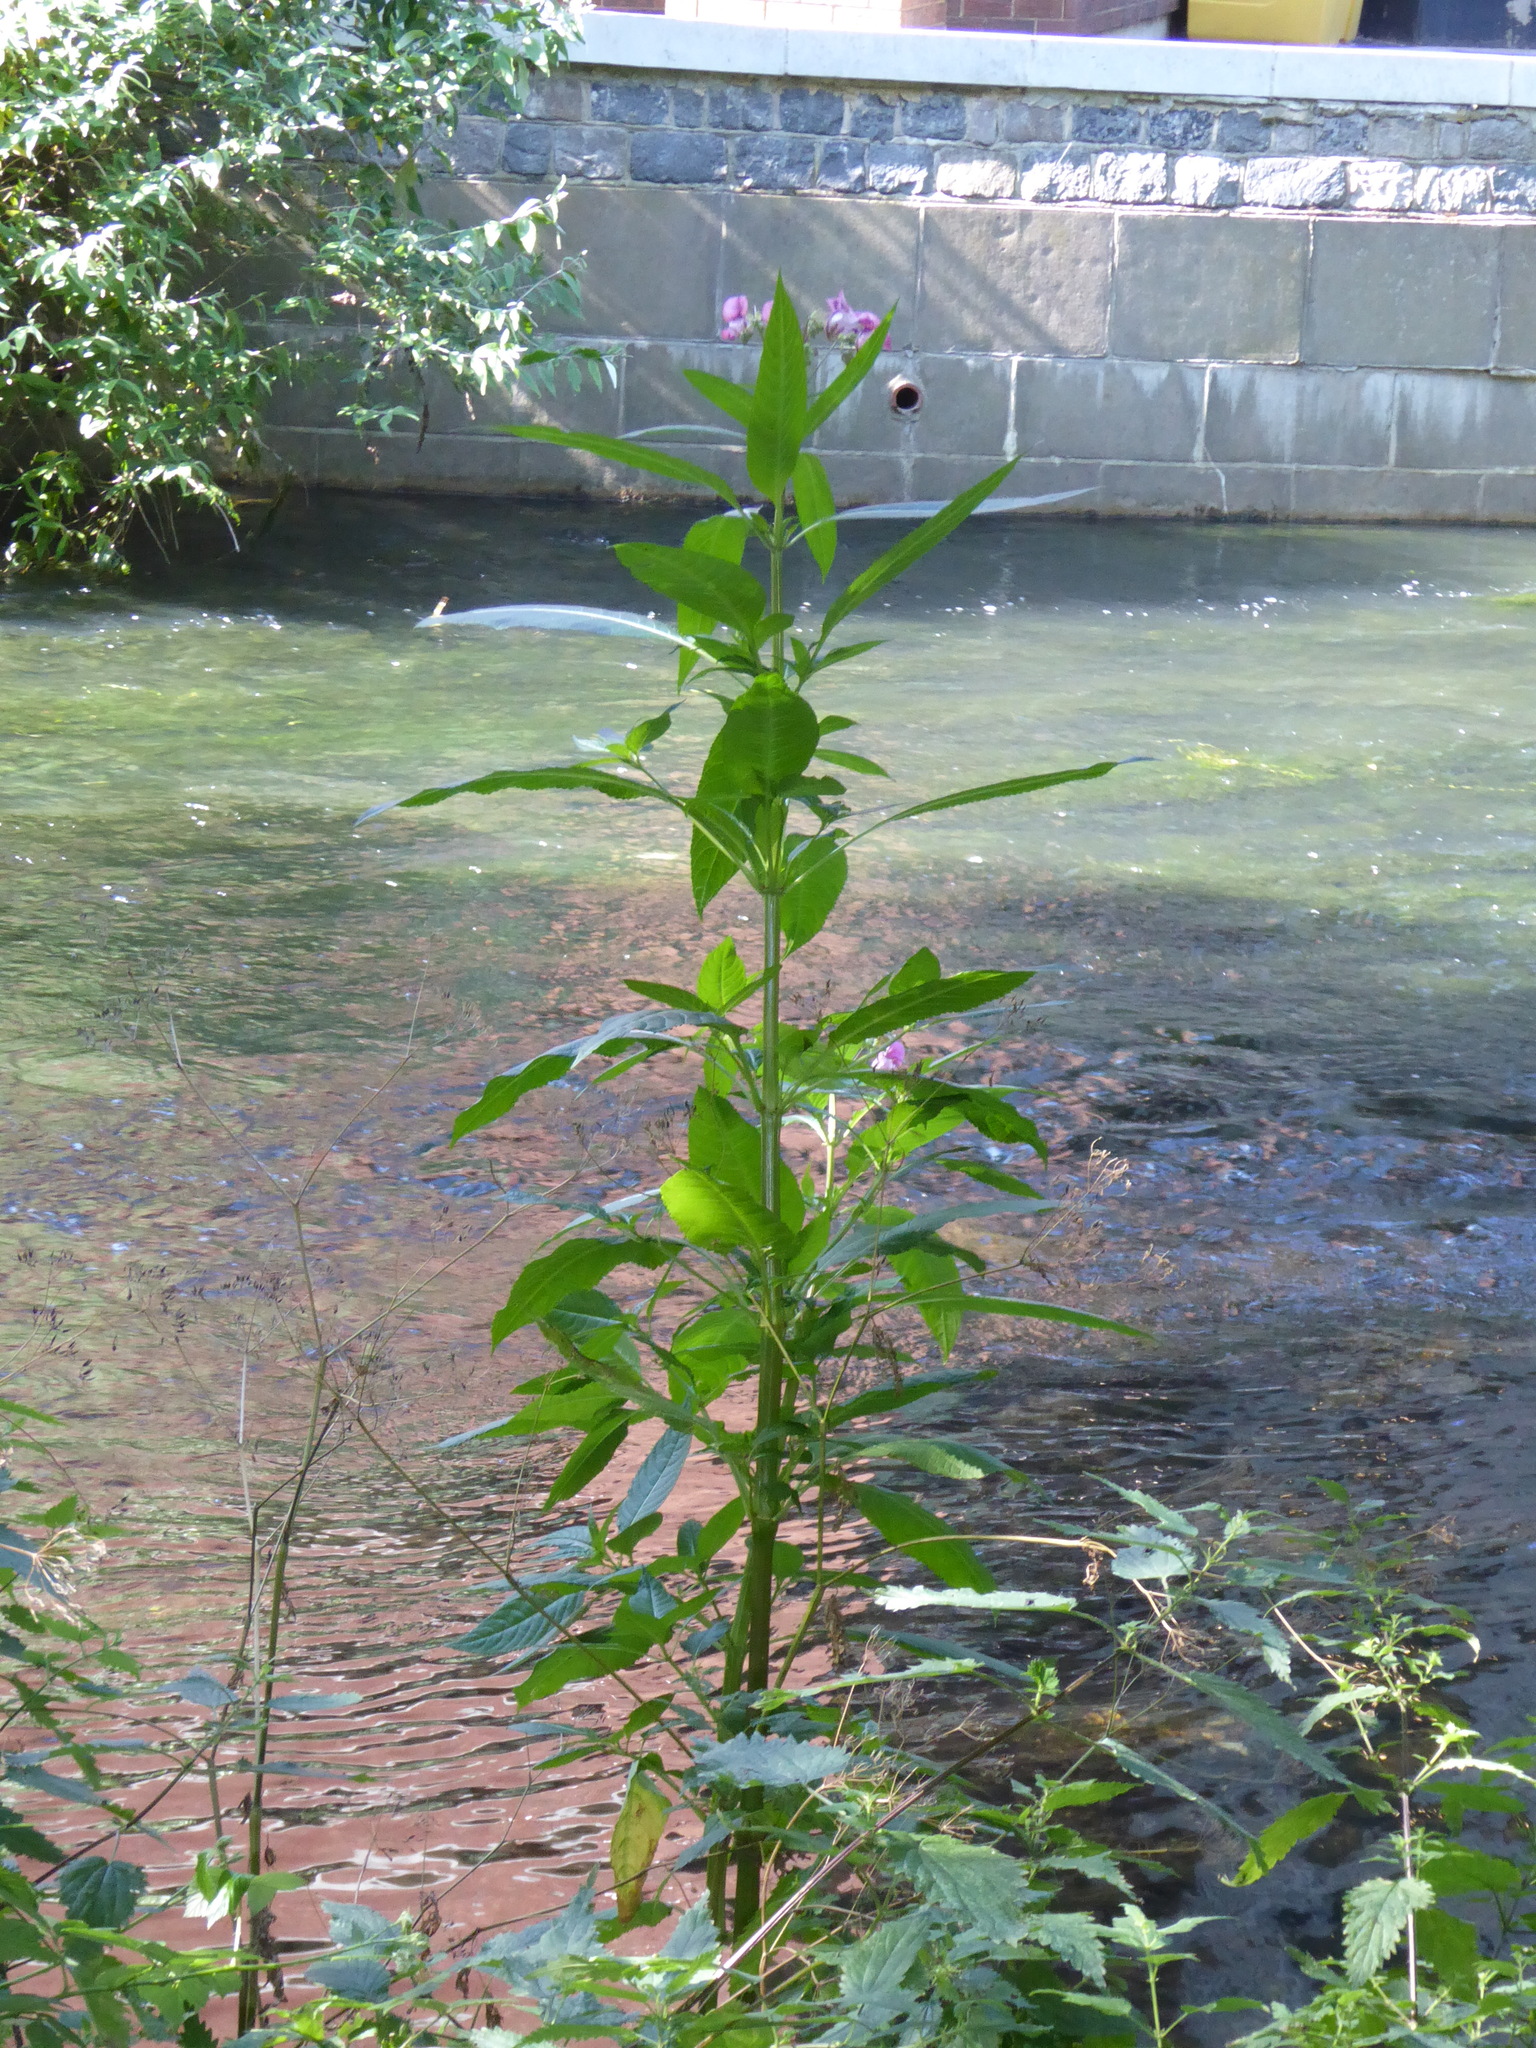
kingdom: Plantae
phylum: Tracheophyta
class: Magnoliopsida
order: Ericales
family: Balsaminaceae
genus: Impatiens
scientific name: Impatiens glandulifera
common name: Himalayan balsam
